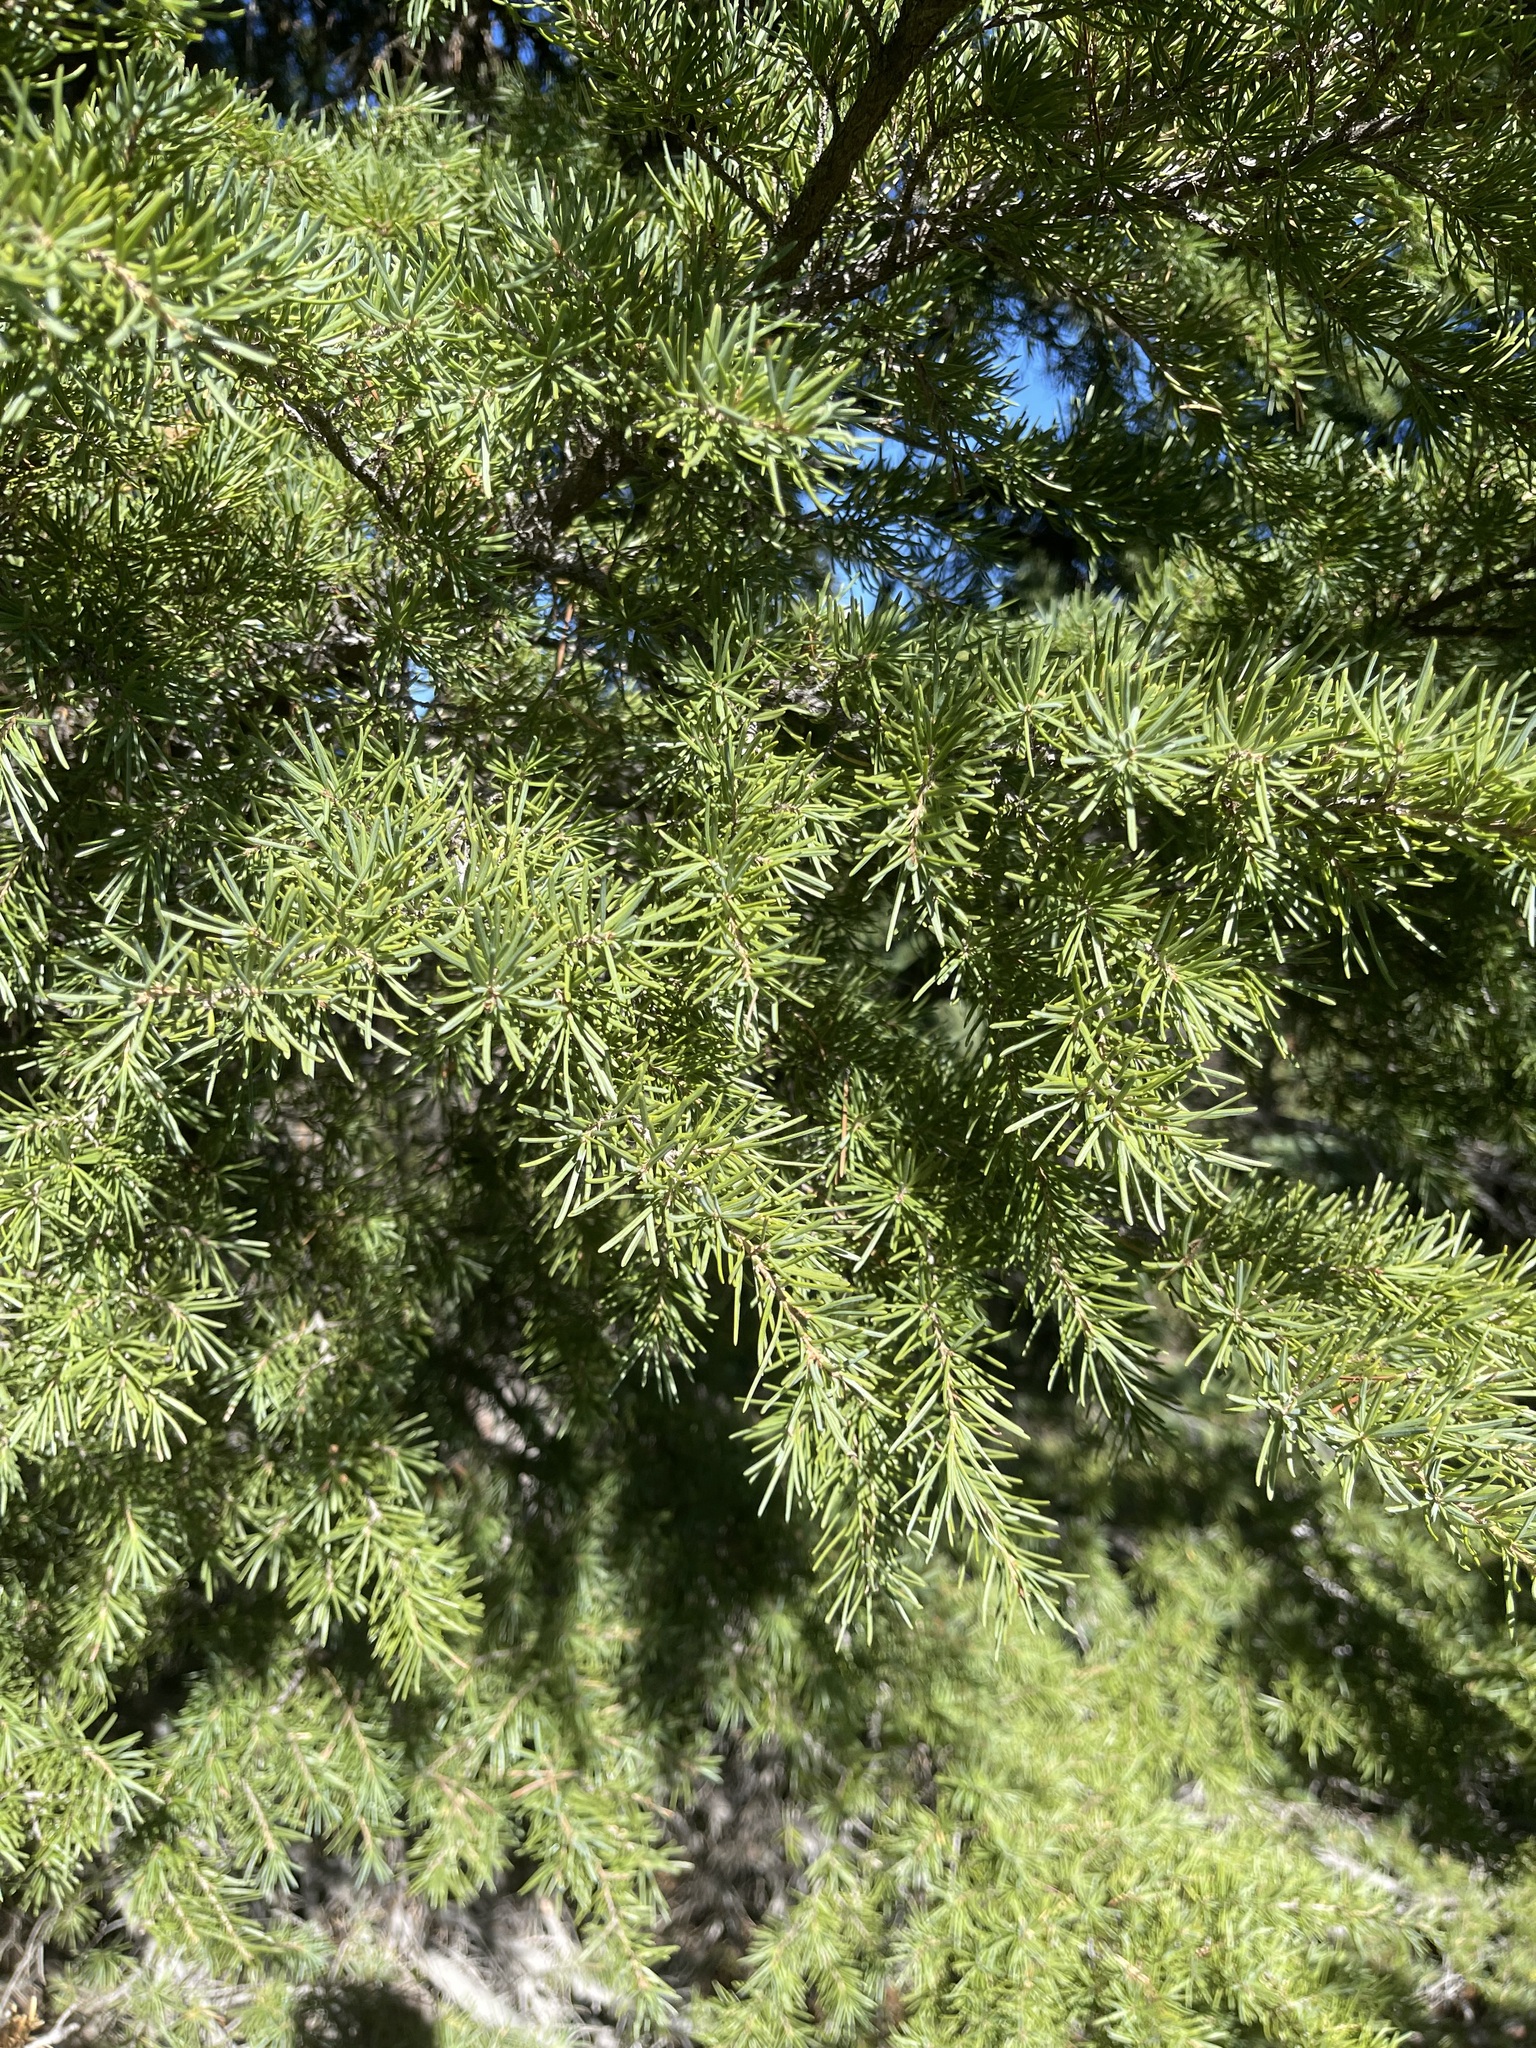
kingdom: Plantae
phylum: Tracheophyta
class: Pinopsida
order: Pinales
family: Pinaceae
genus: Tsuga
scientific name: Tsuga mertensiana
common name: Mountain hemlock
